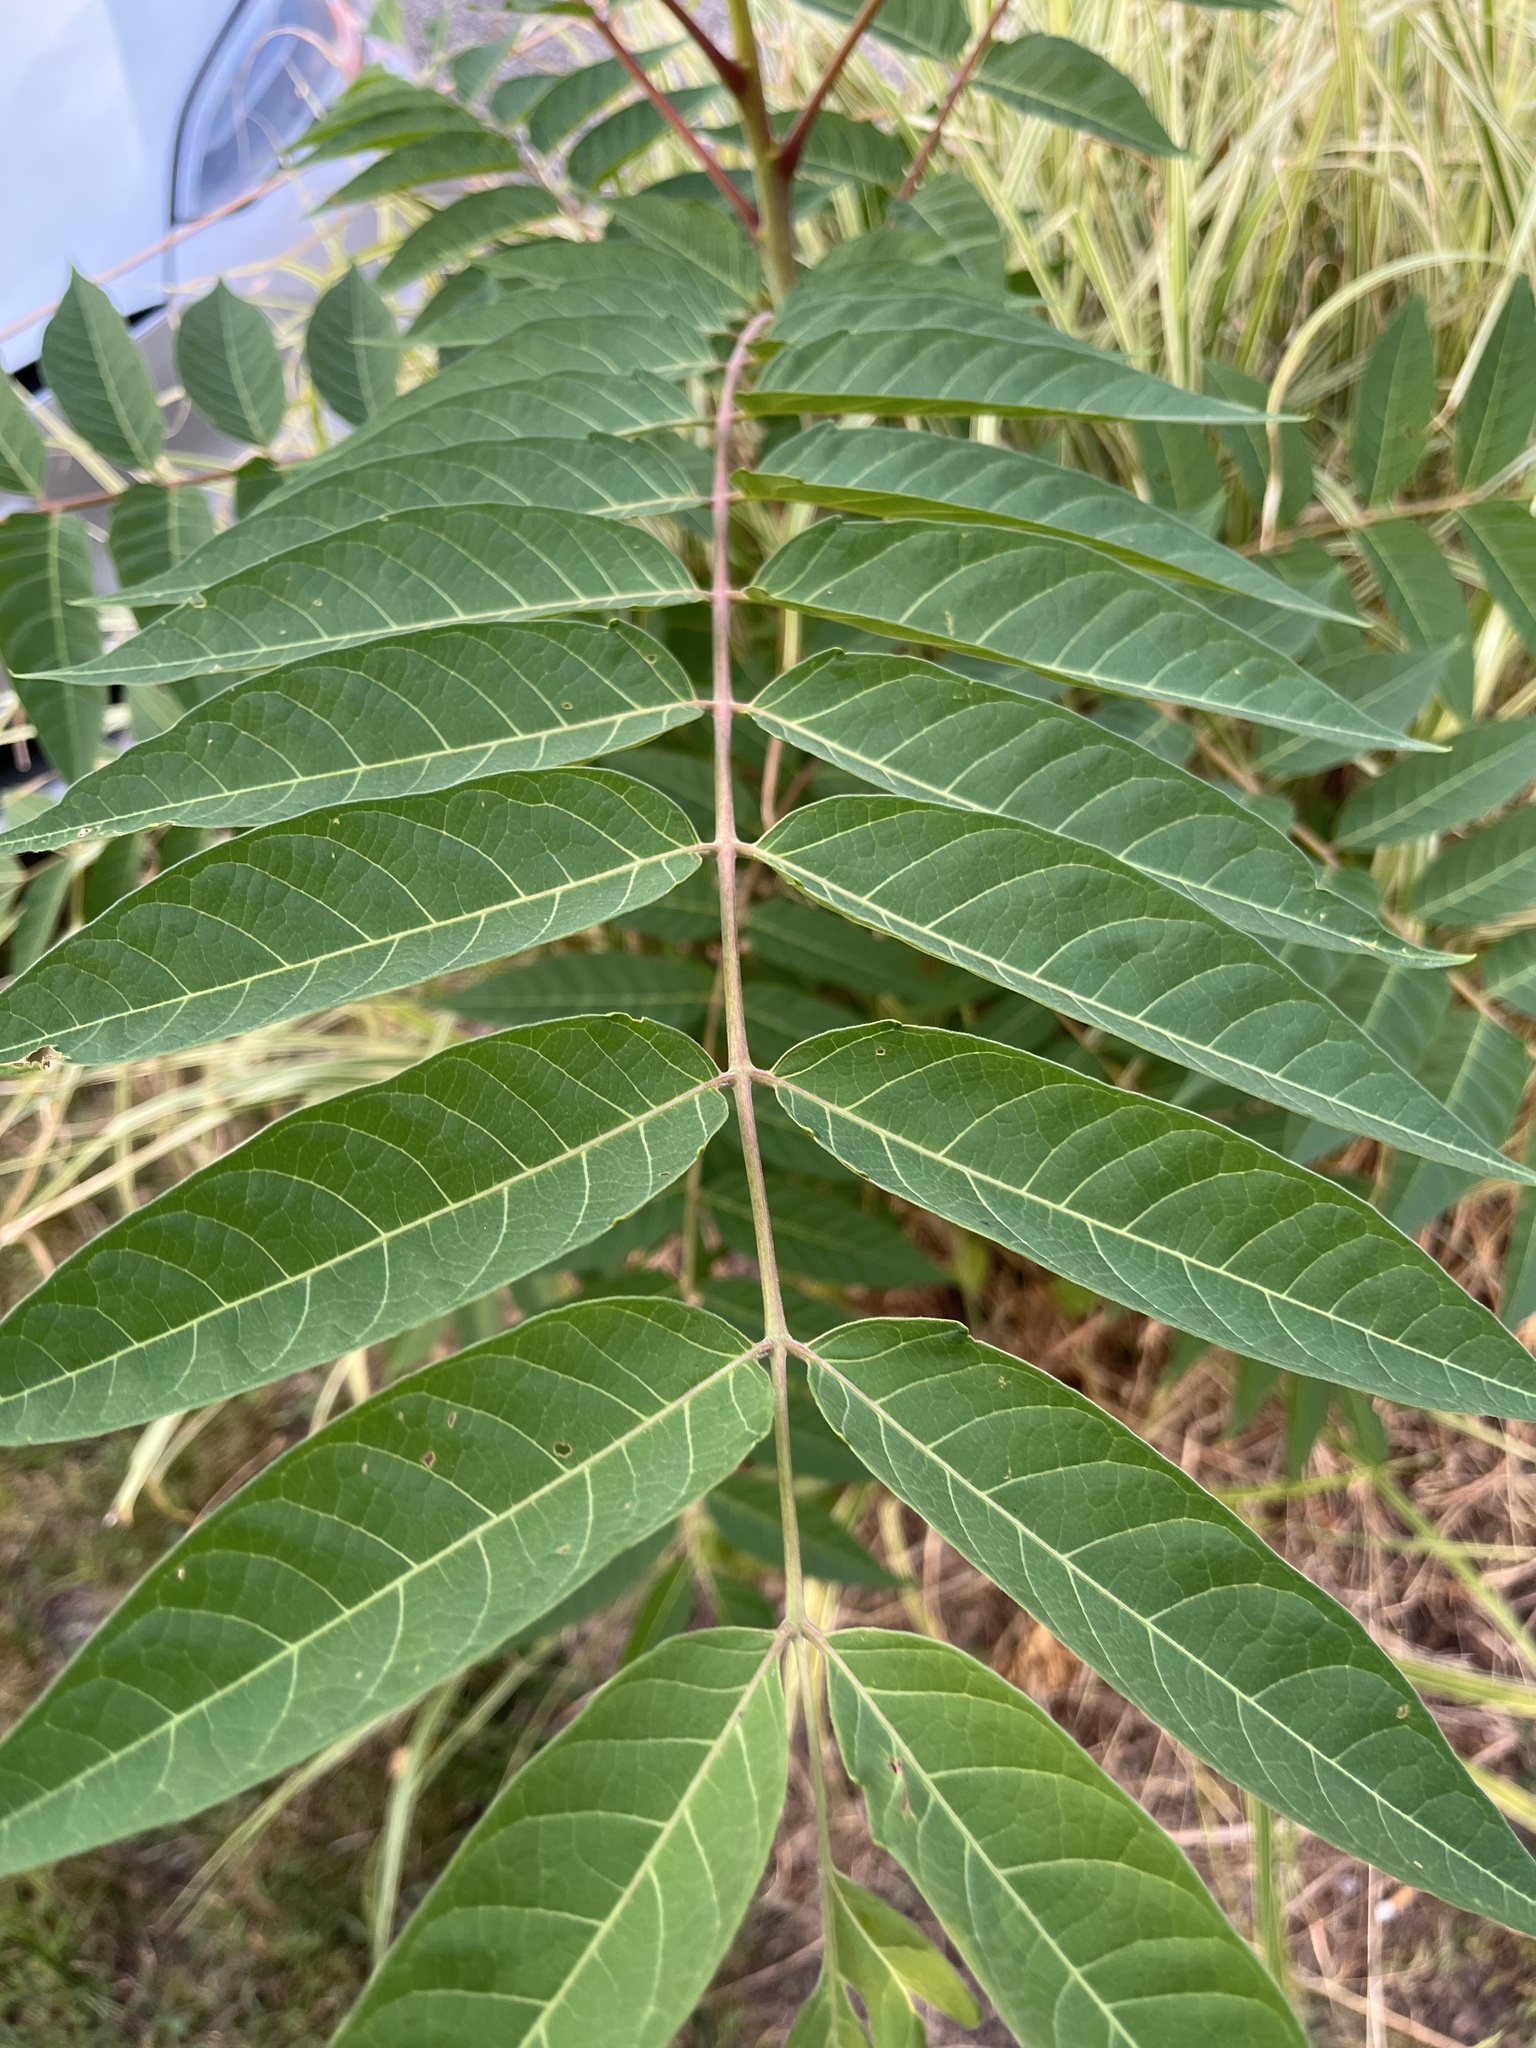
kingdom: Plantae
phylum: Tracheophyta
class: Magnoliopsida
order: Sapindales
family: Simaroubaceae
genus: Ailanthus
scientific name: Ailanthus altissima
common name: Tree-of-heaven
